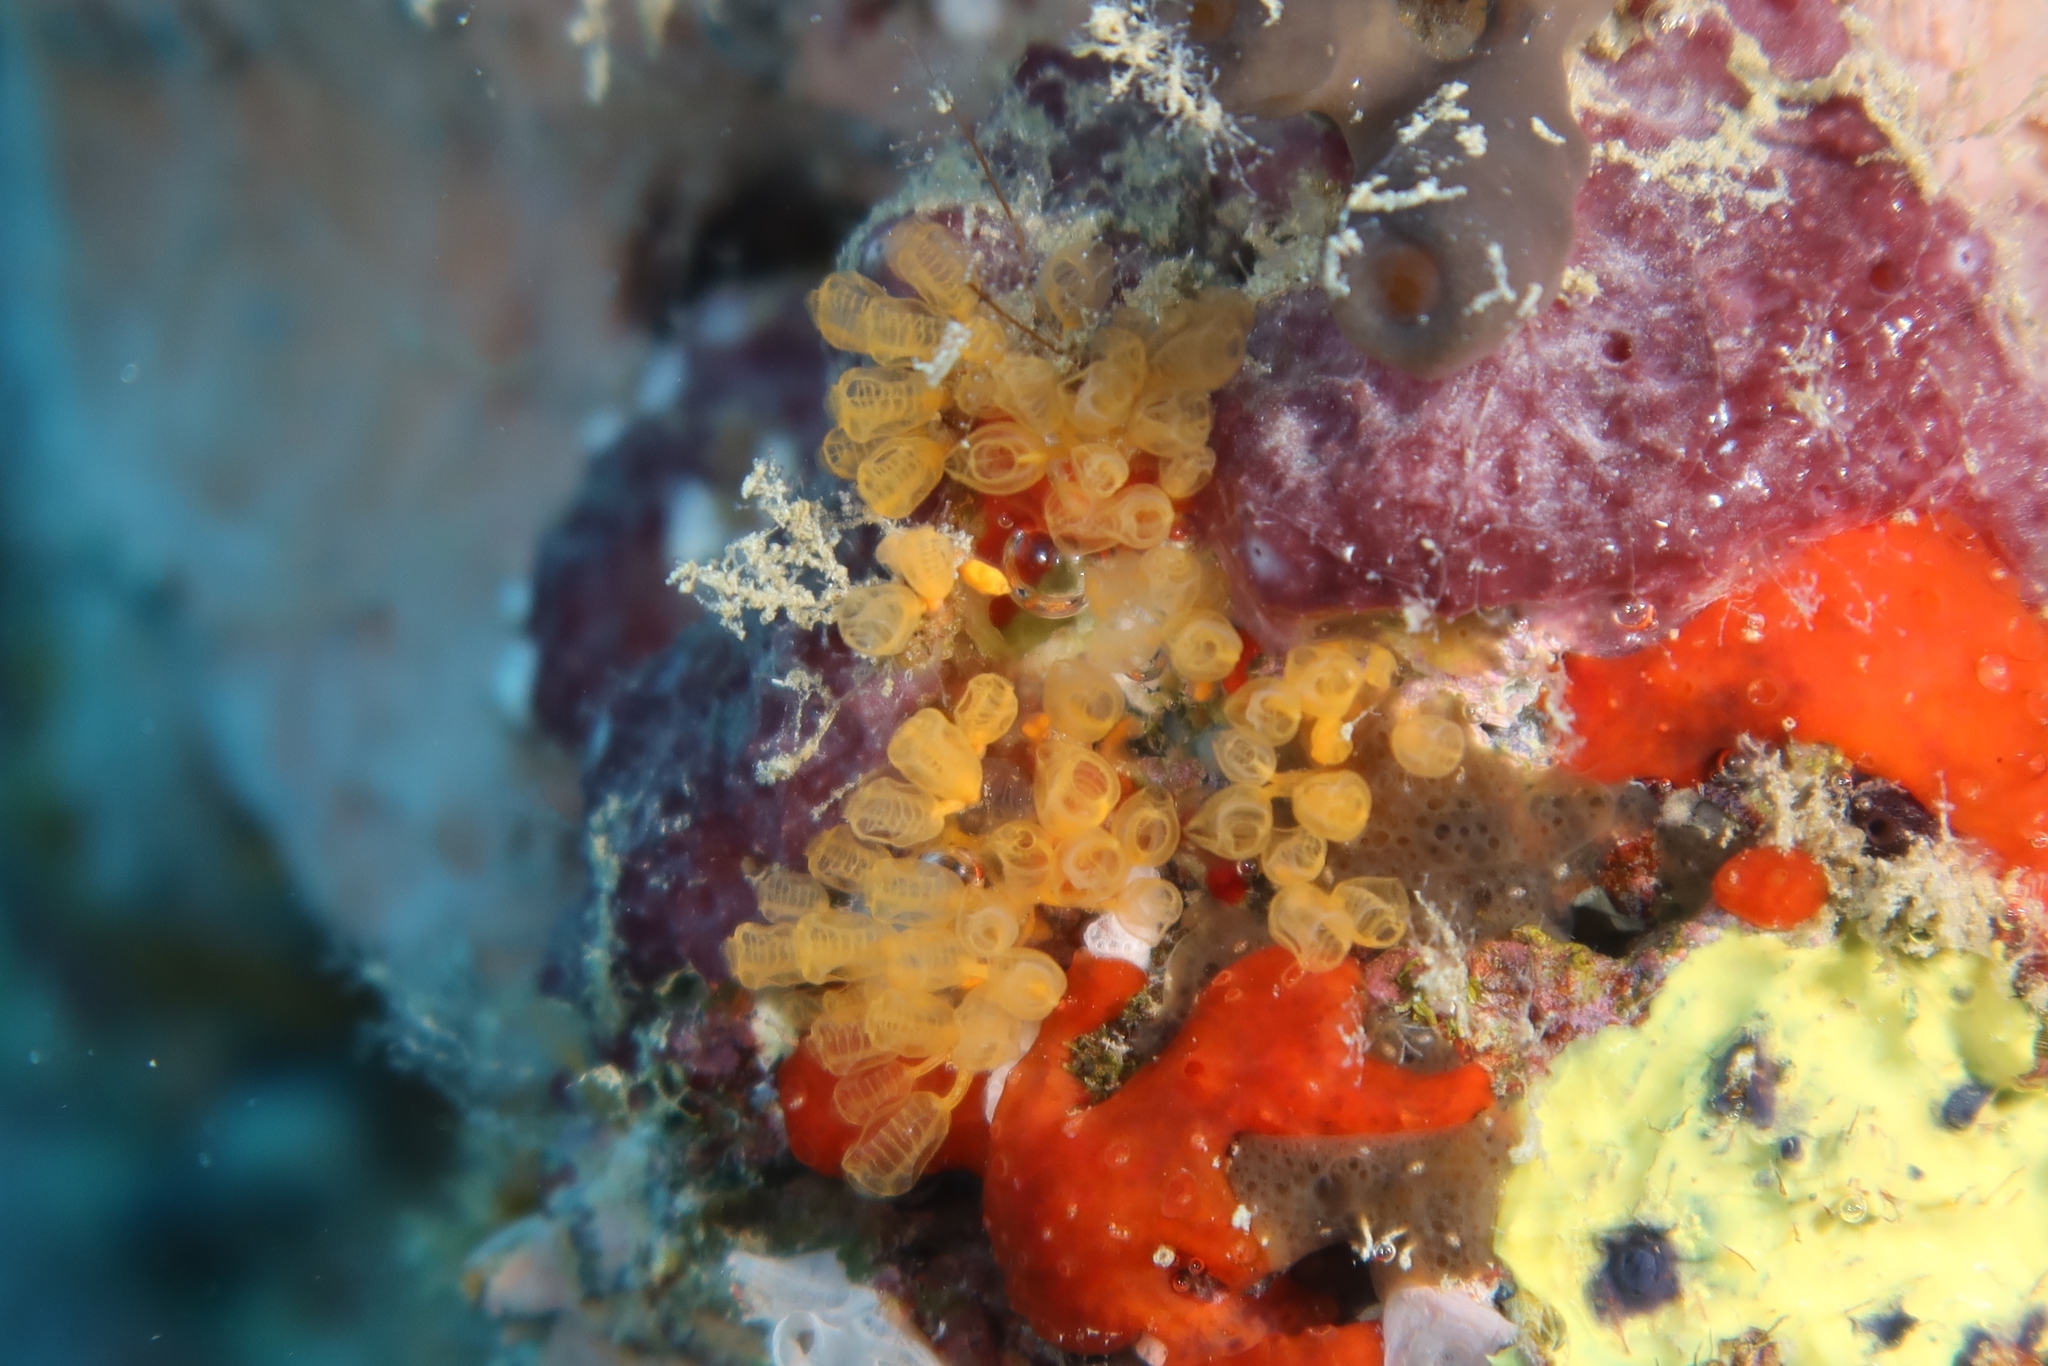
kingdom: Animalia
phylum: Chordata
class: Ascidiacea
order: Aplousobranchia
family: Clavelinidae
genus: Pycnoclavella
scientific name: Pycnoclavella communis
